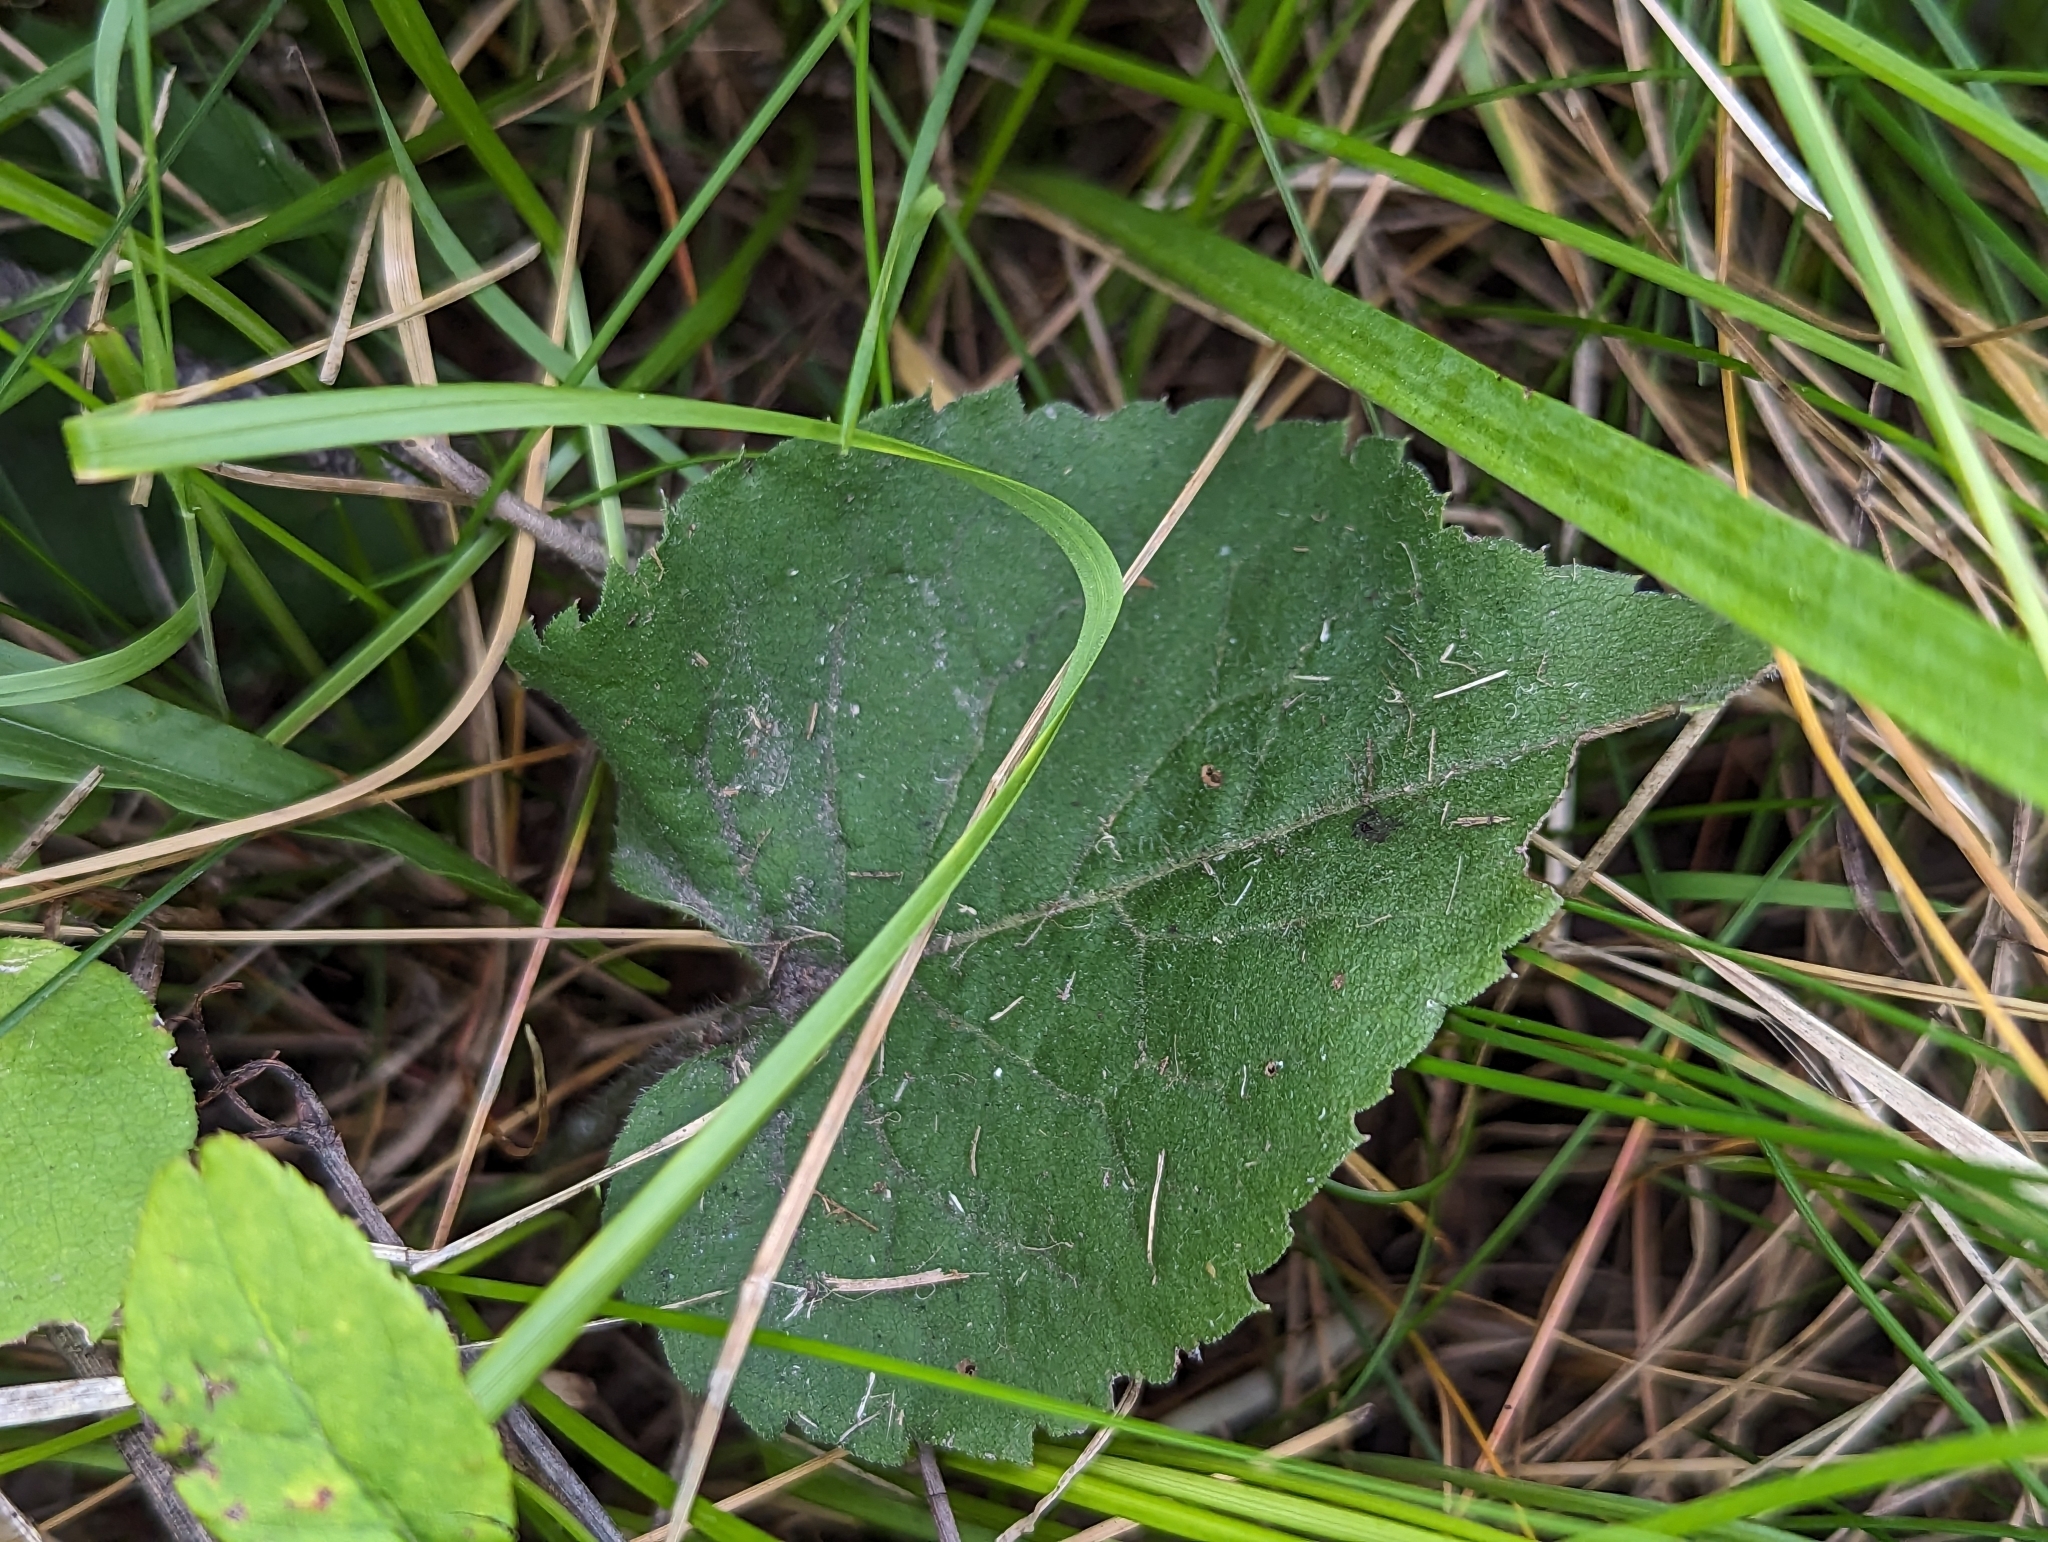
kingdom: Plantae
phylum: Tracheophyta
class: Magnoliopsida
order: Asterales
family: Asteraceae
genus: Eurybia
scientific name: Eurybia macrophylla
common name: Big-leaved aster
